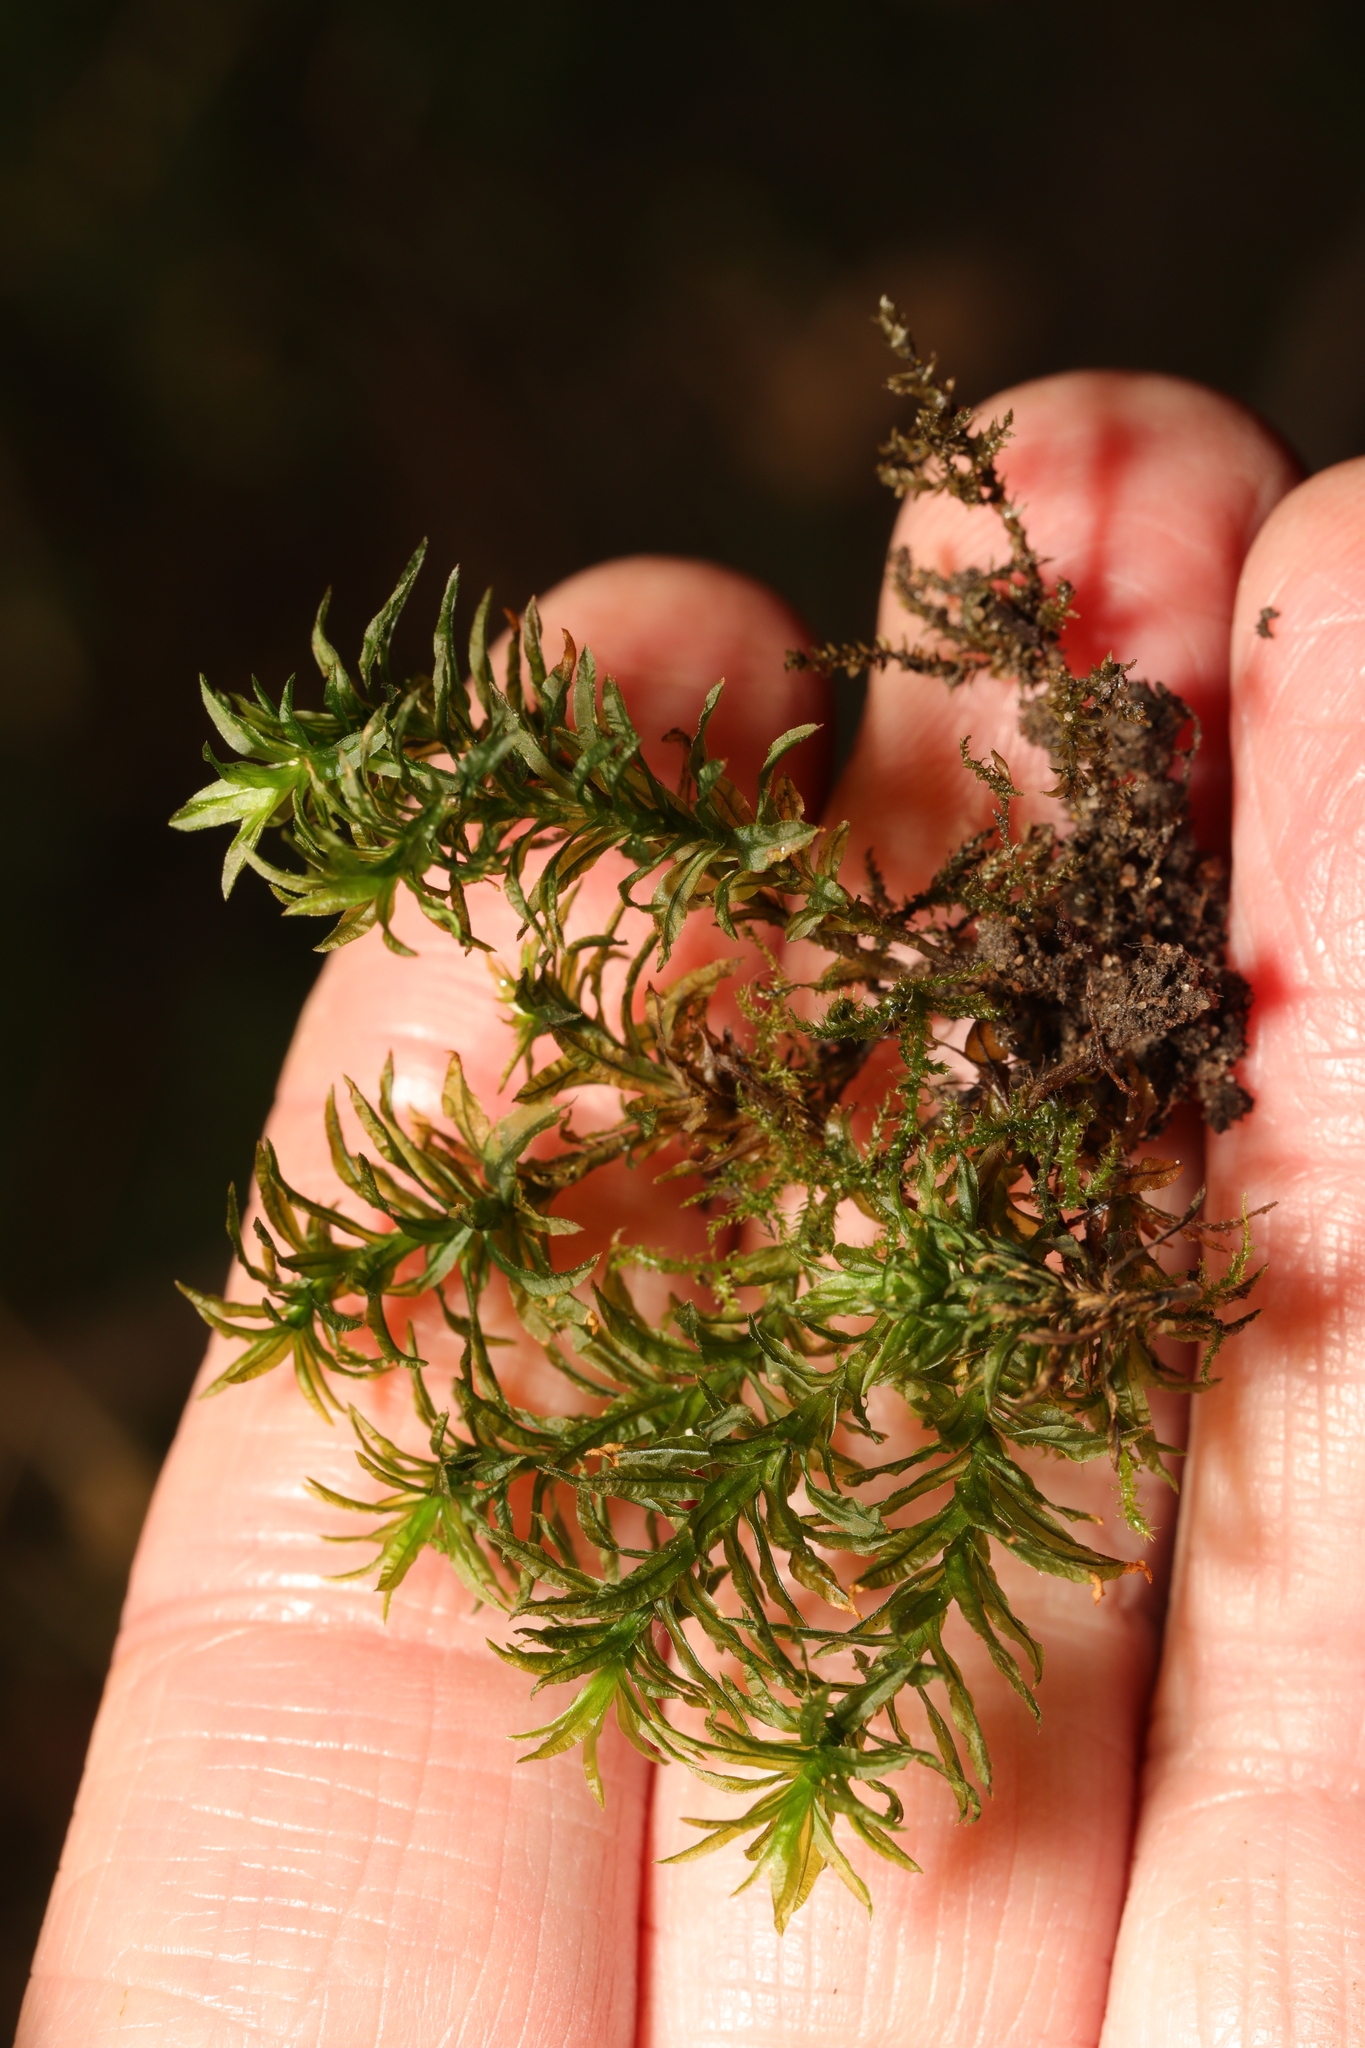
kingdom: Plantae
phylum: Bryophyta
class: Polytrichopsida
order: Polytrichales
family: Polytrichaceae
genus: Atrichum
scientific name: Atrichum undulatum
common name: Common smoothcap
